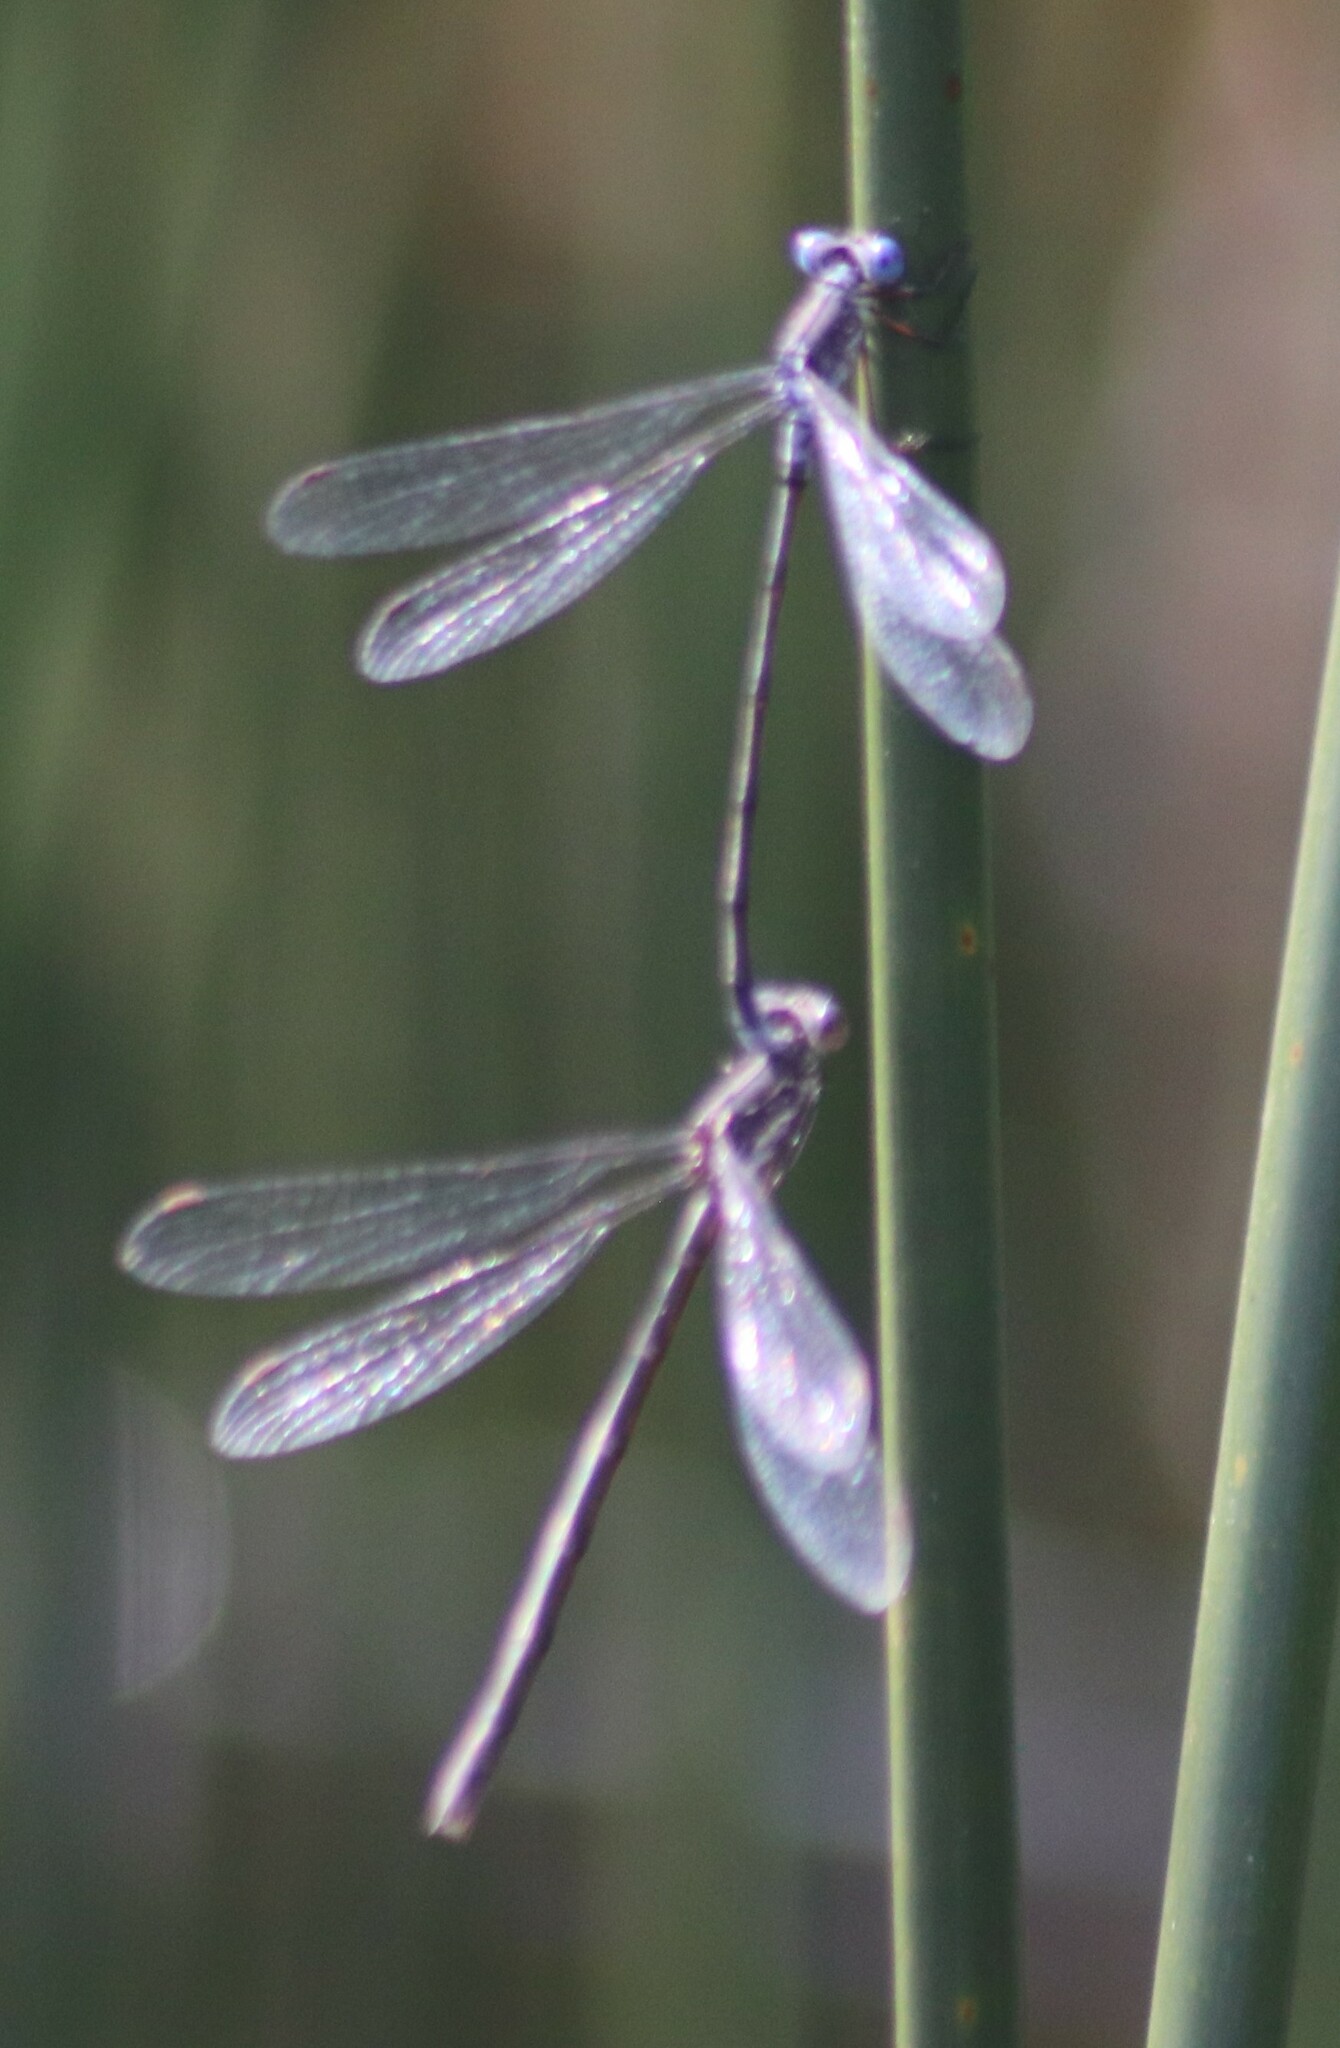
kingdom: Animalia
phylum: Arthropoda
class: Insecta
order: Odonata
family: Lestidae
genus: Lestes
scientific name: Lestes congener
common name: Spotted spreadwing
